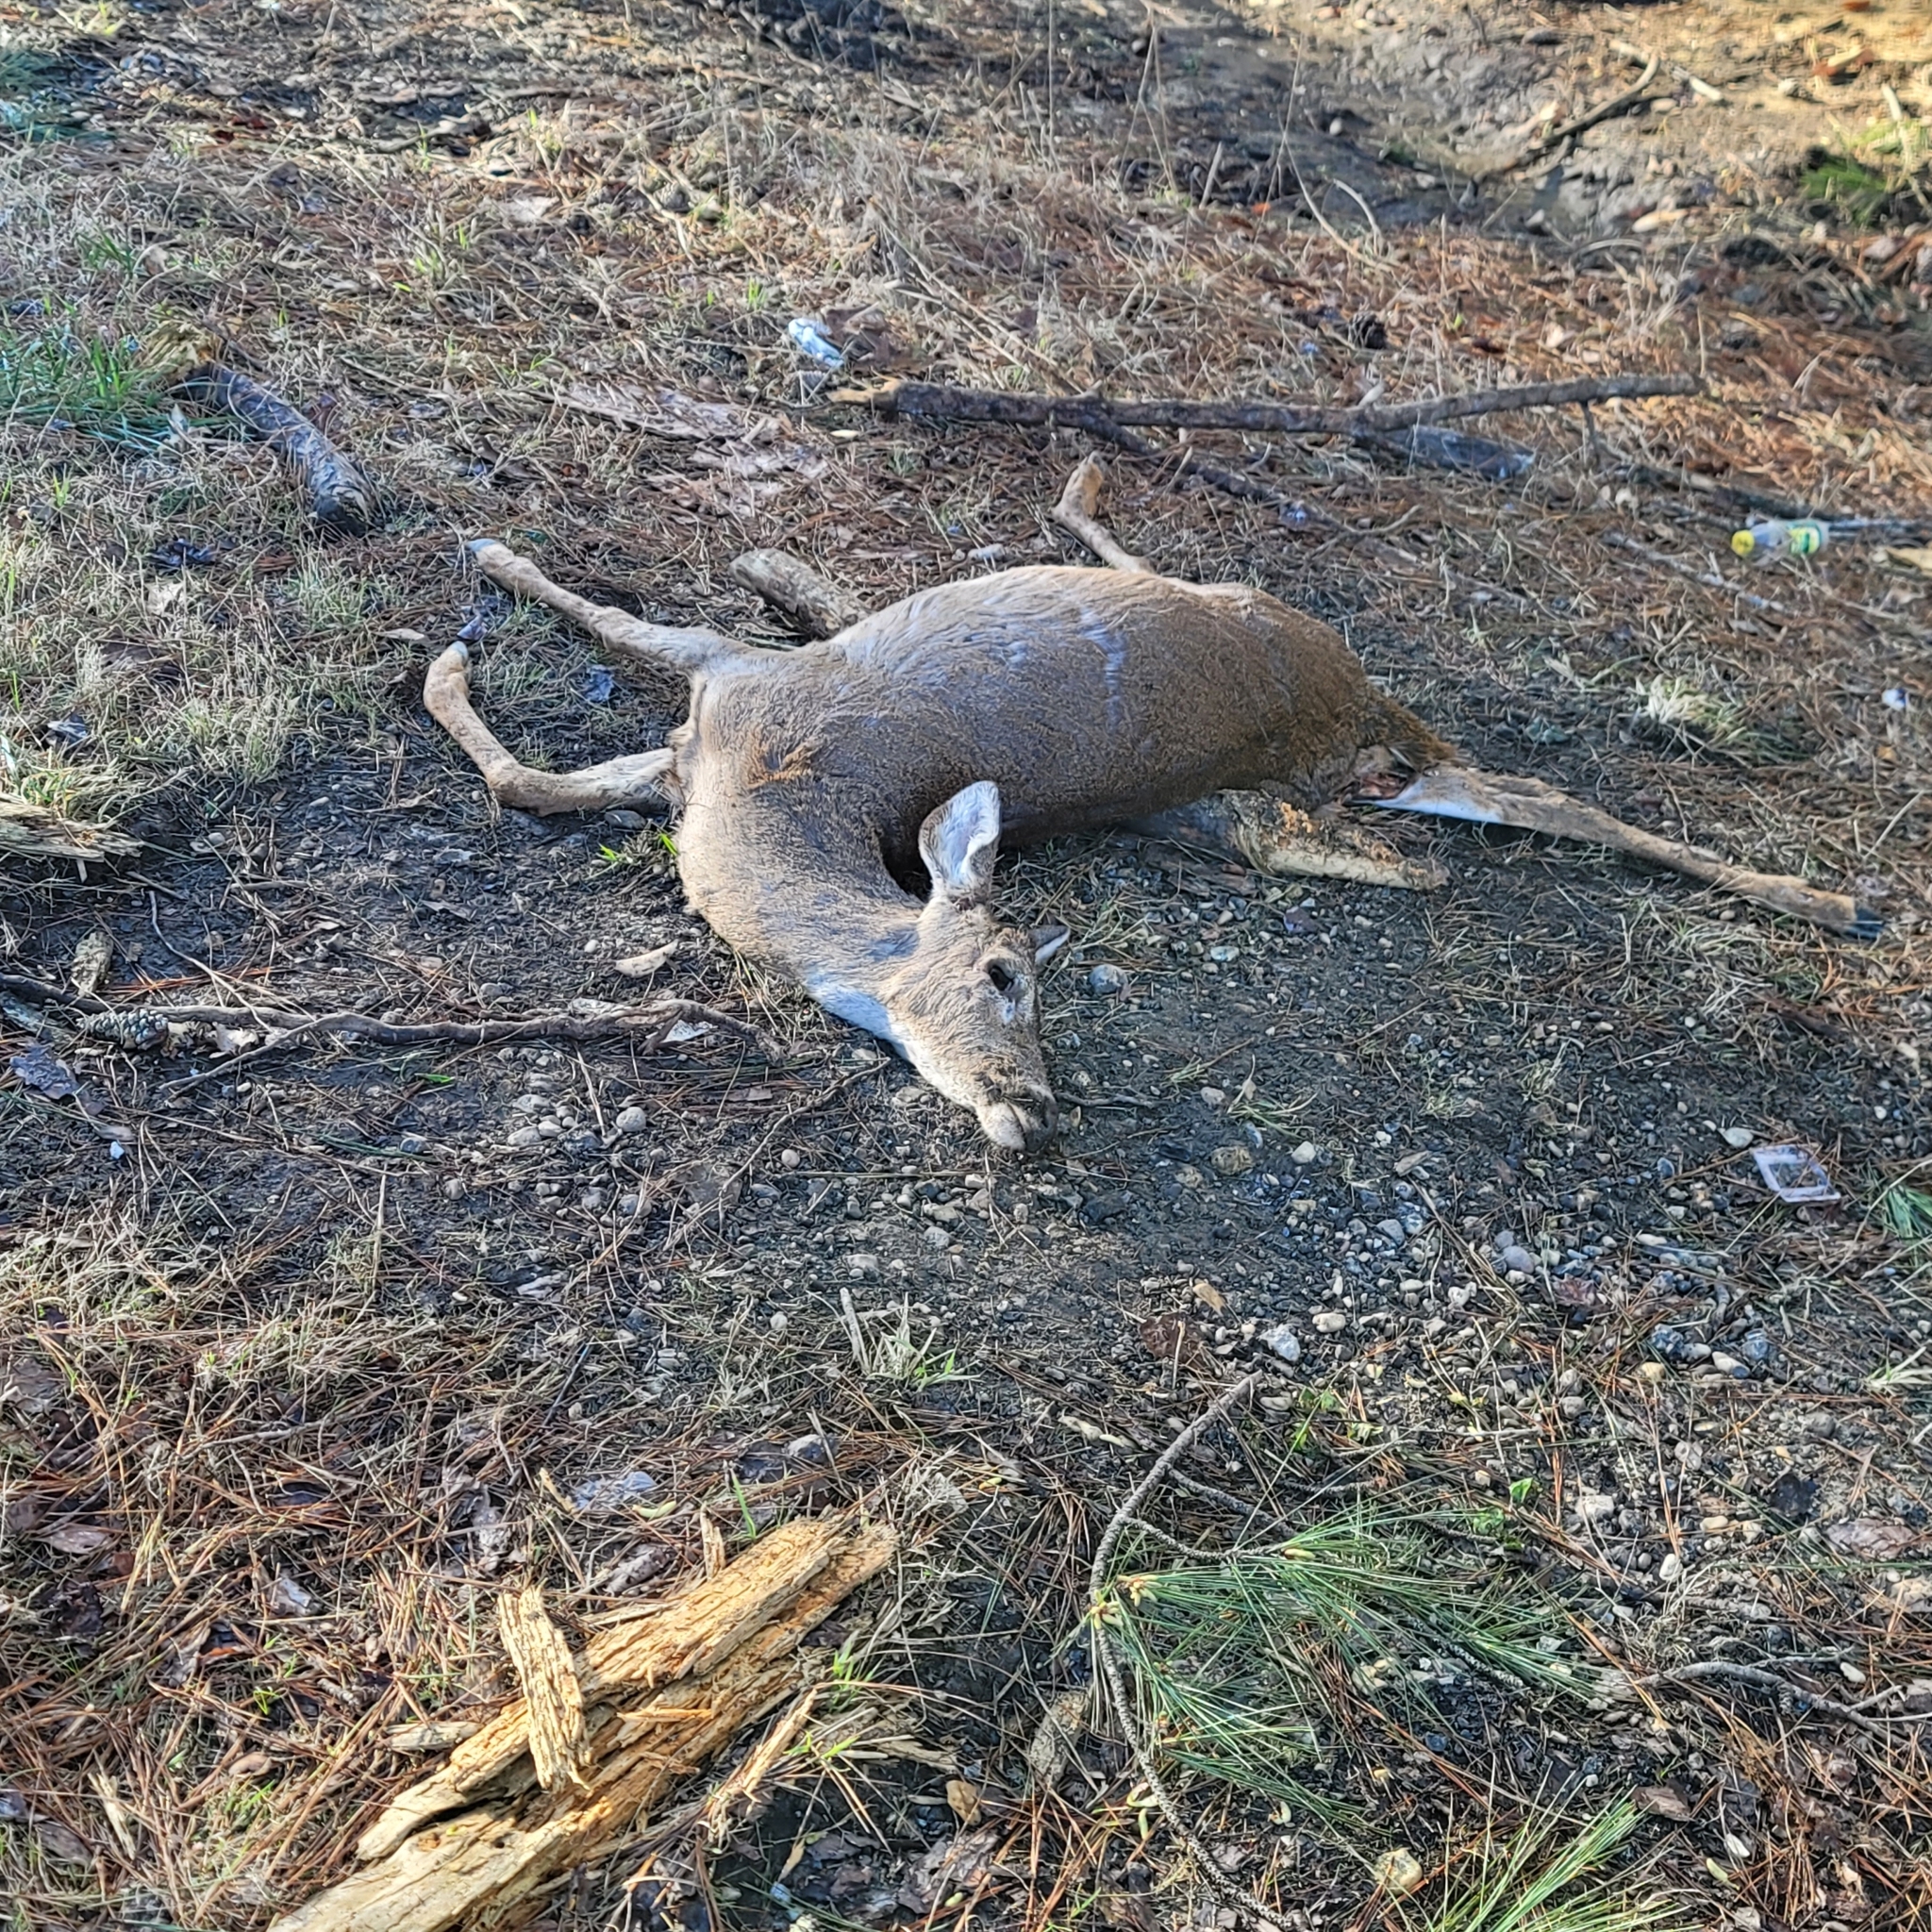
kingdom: Animalia
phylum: Chordata
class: Mammalia
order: Artiodactyla
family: Cervidae
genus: Odocoileus
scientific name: Odocoileus virginianus
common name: White-tailed deer
